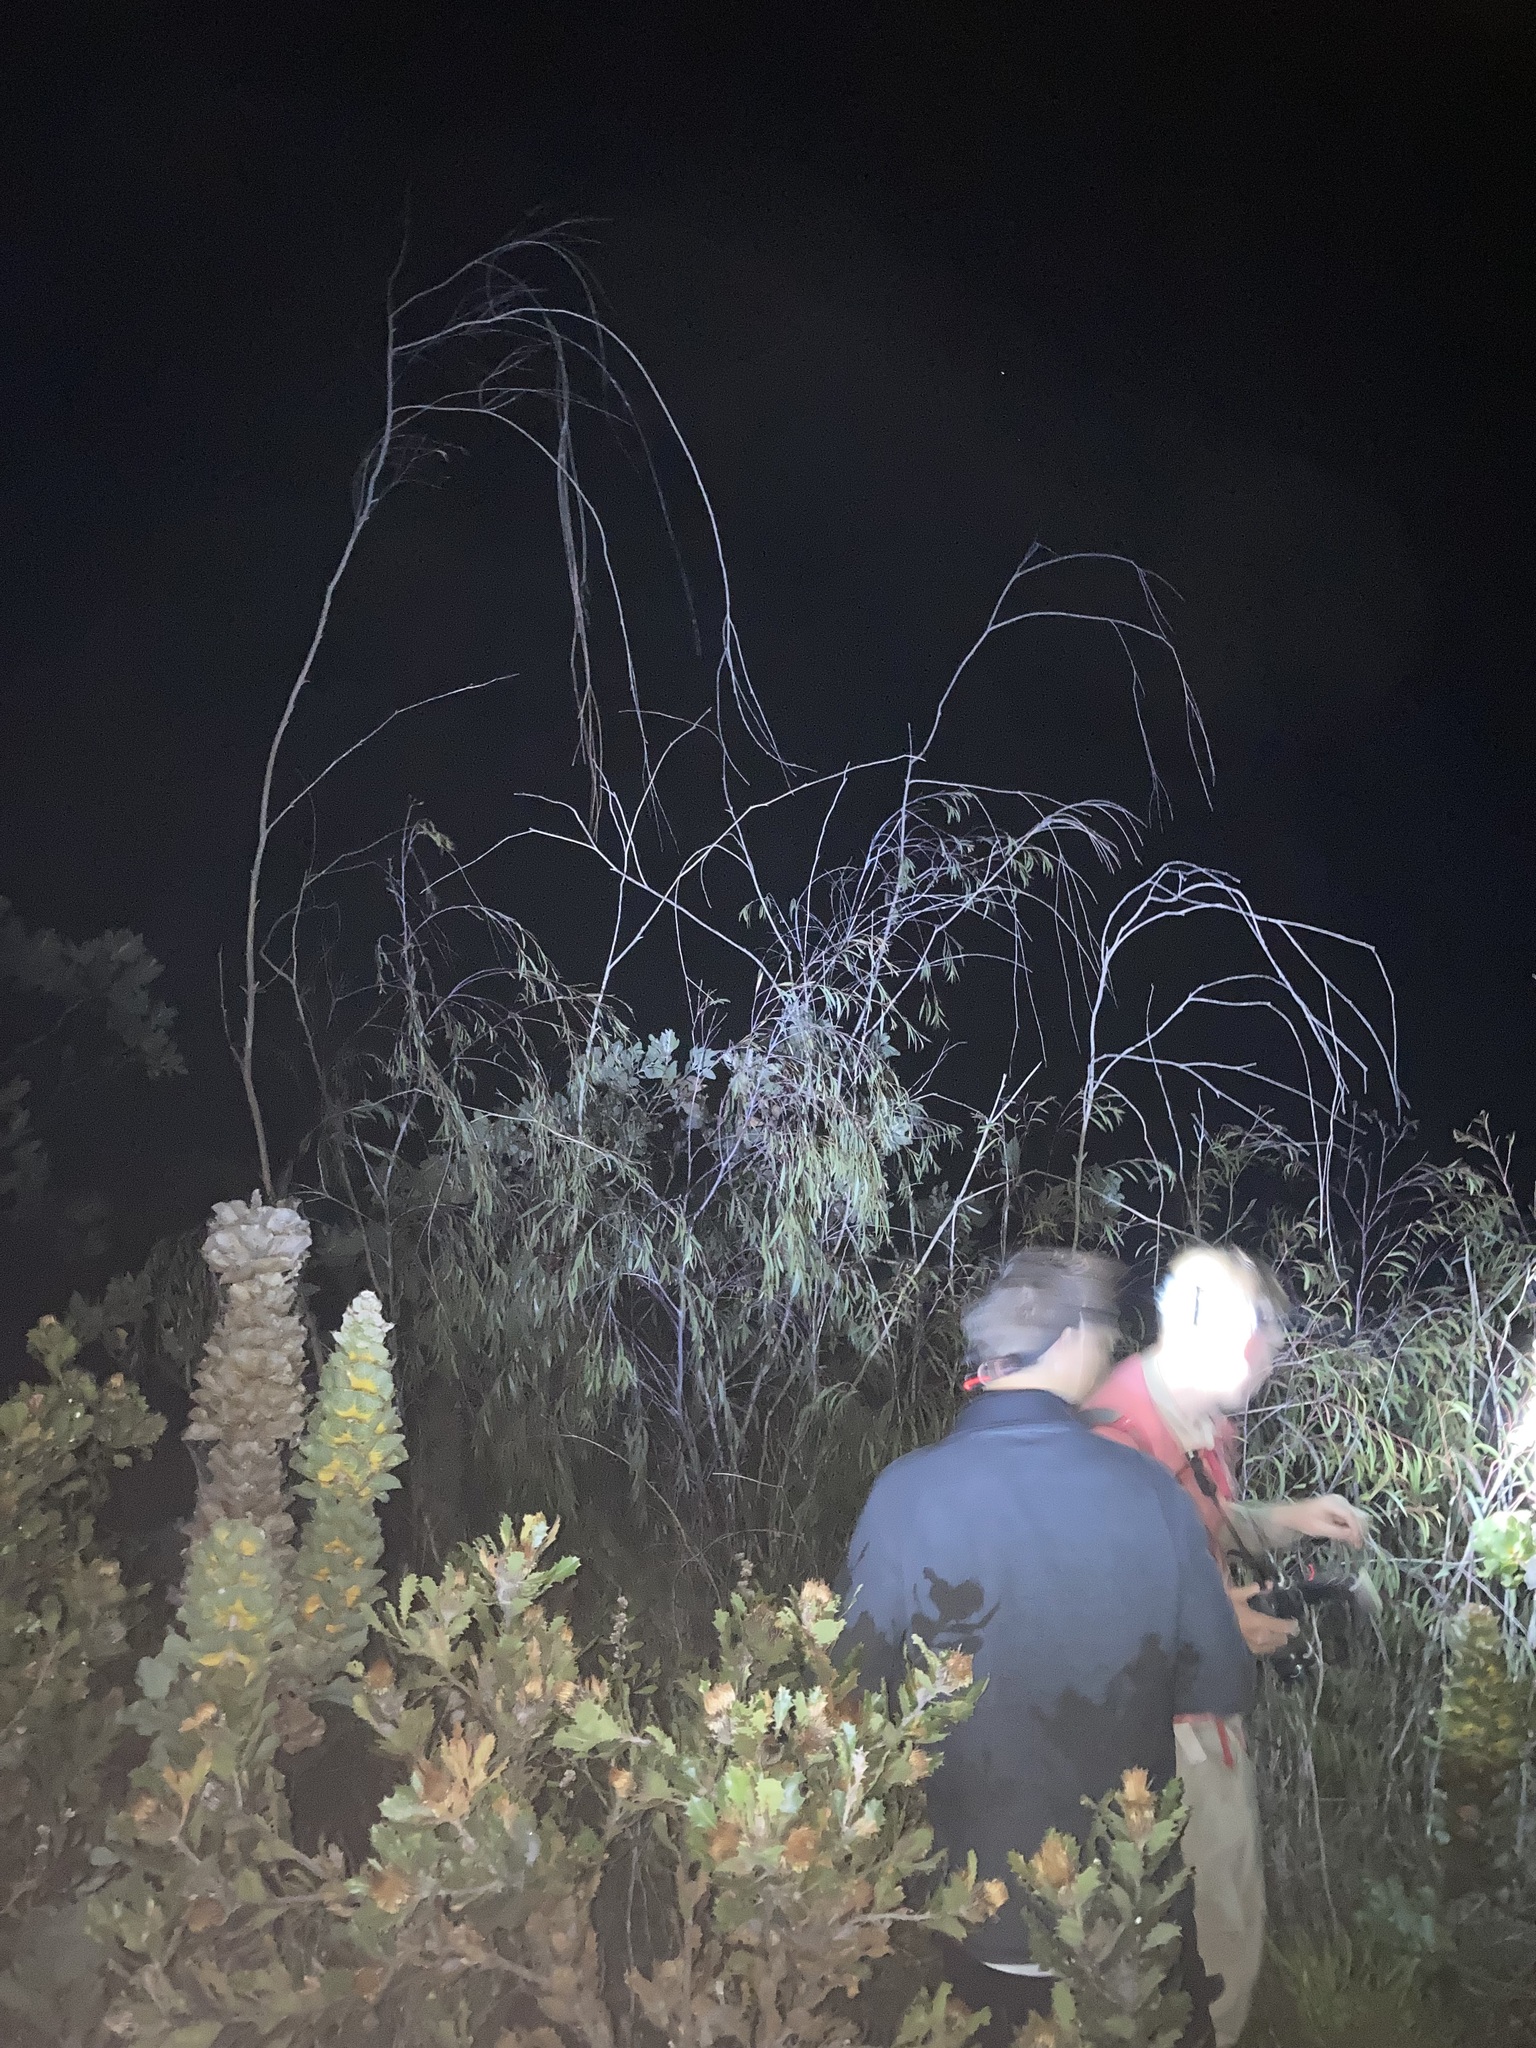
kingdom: Plantae
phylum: Tracheophyta
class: Magnoliopsida
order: Myrtales
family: Myrtaceae
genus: Eucalyptus
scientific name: Eucalyptus sepulcralis
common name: Weeping mallee
